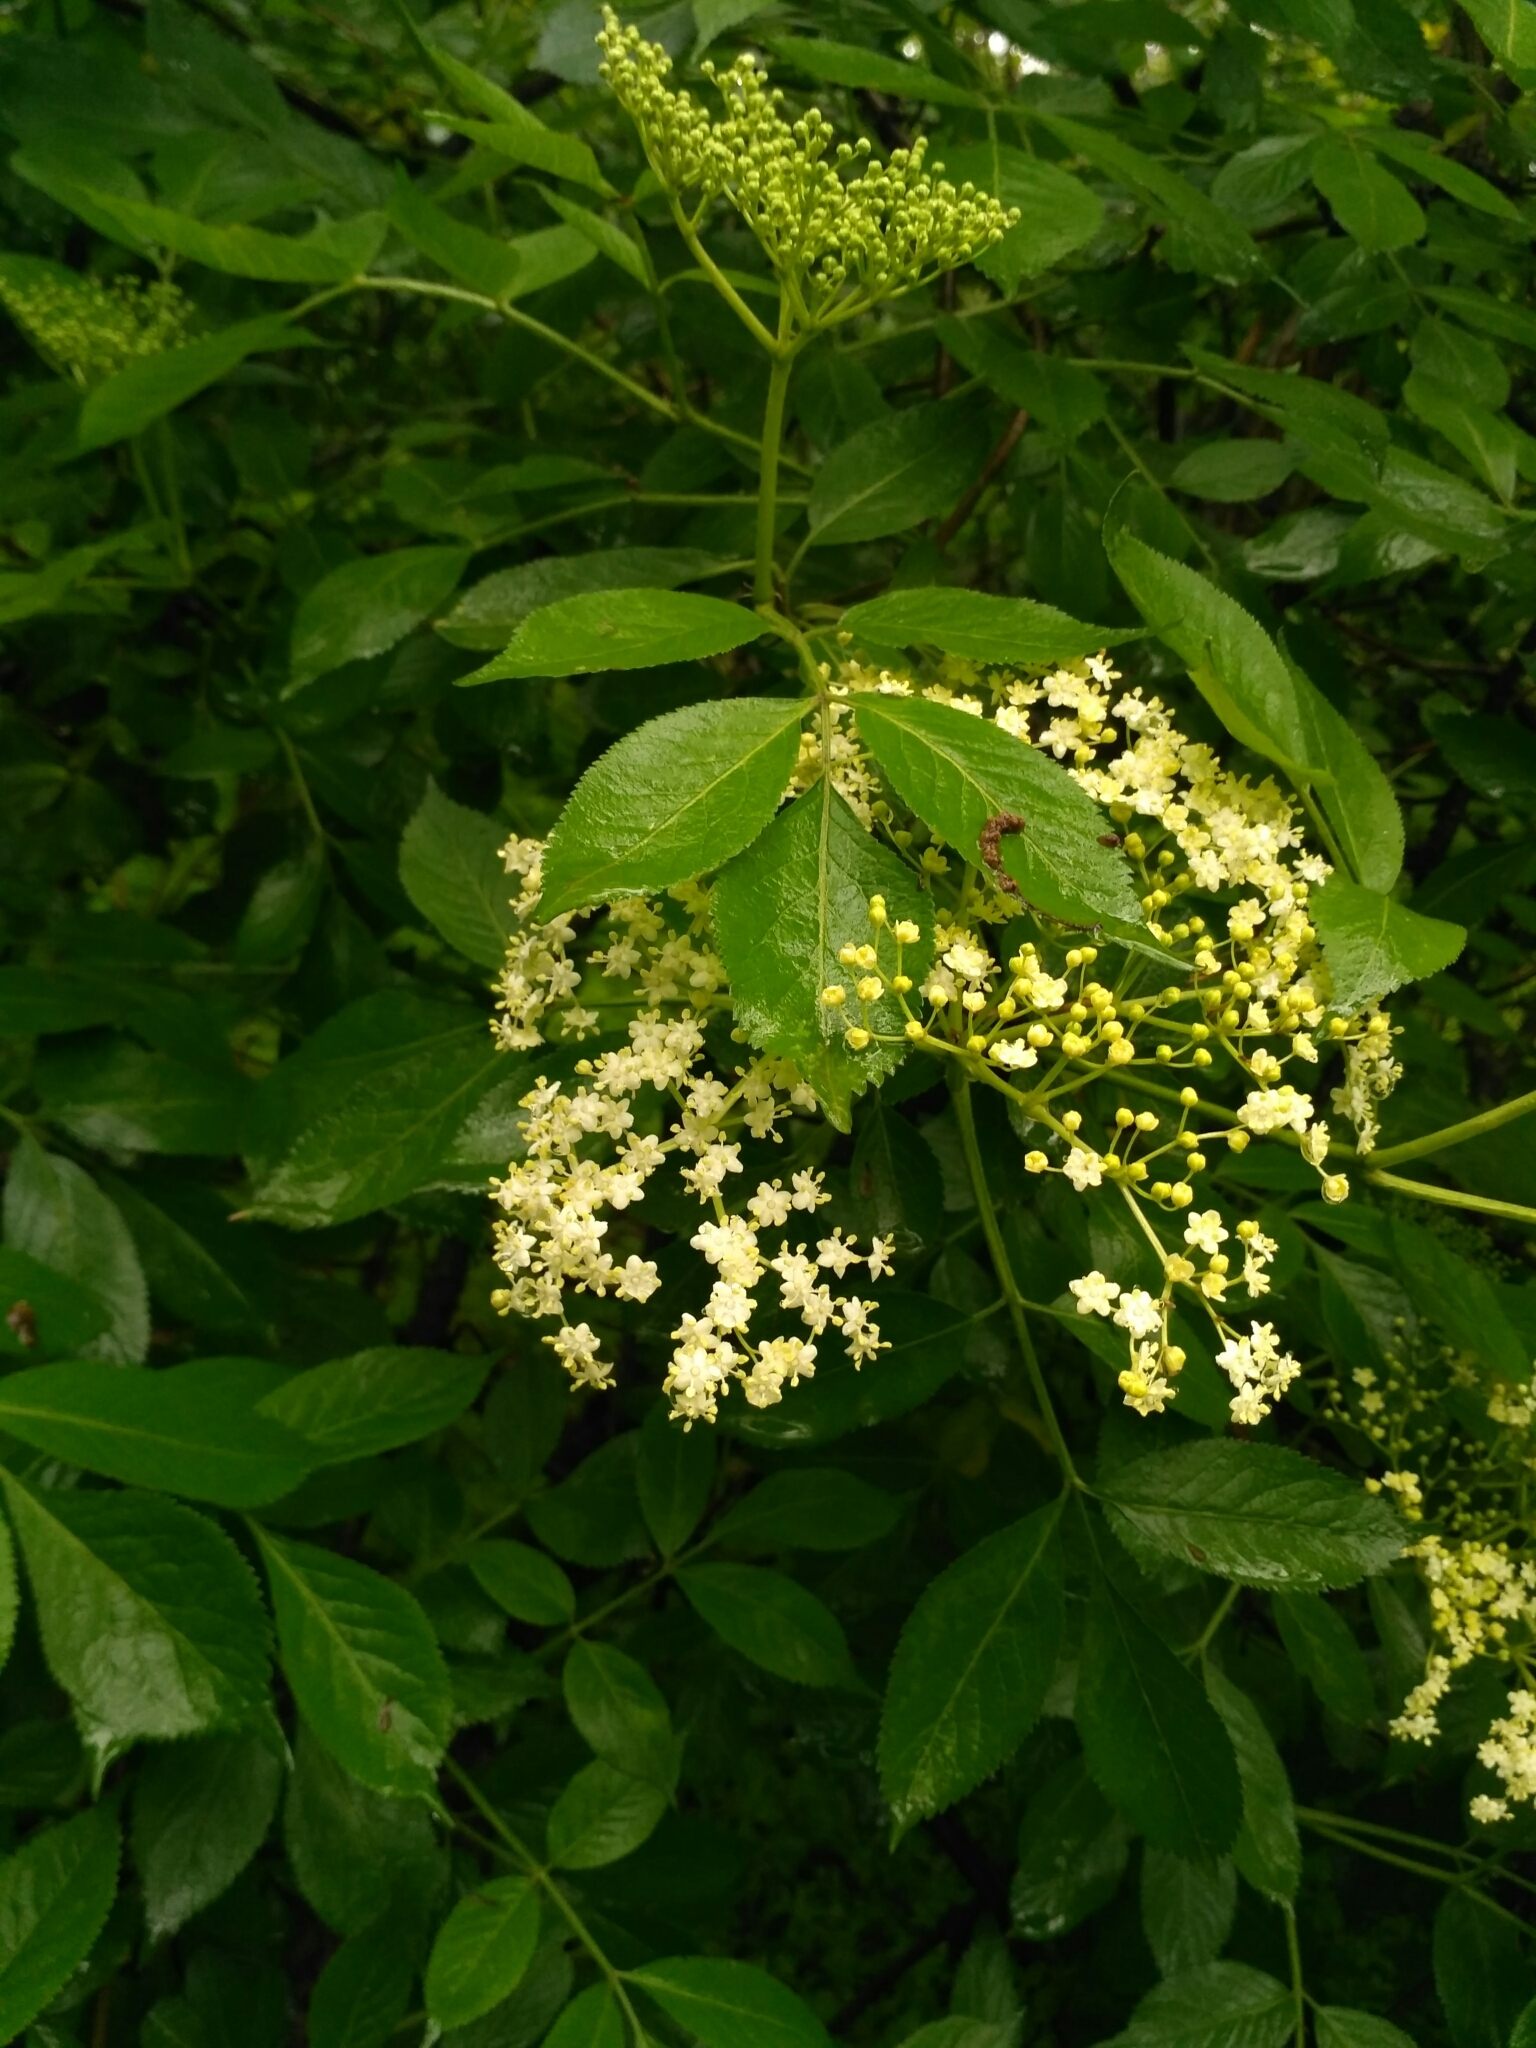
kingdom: Plantae
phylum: Tracheophyta
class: Magnoliopsida
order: Dipsacales
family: Viburnaceae
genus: Sambucus
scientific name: Sambucus nigra
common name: Elder
